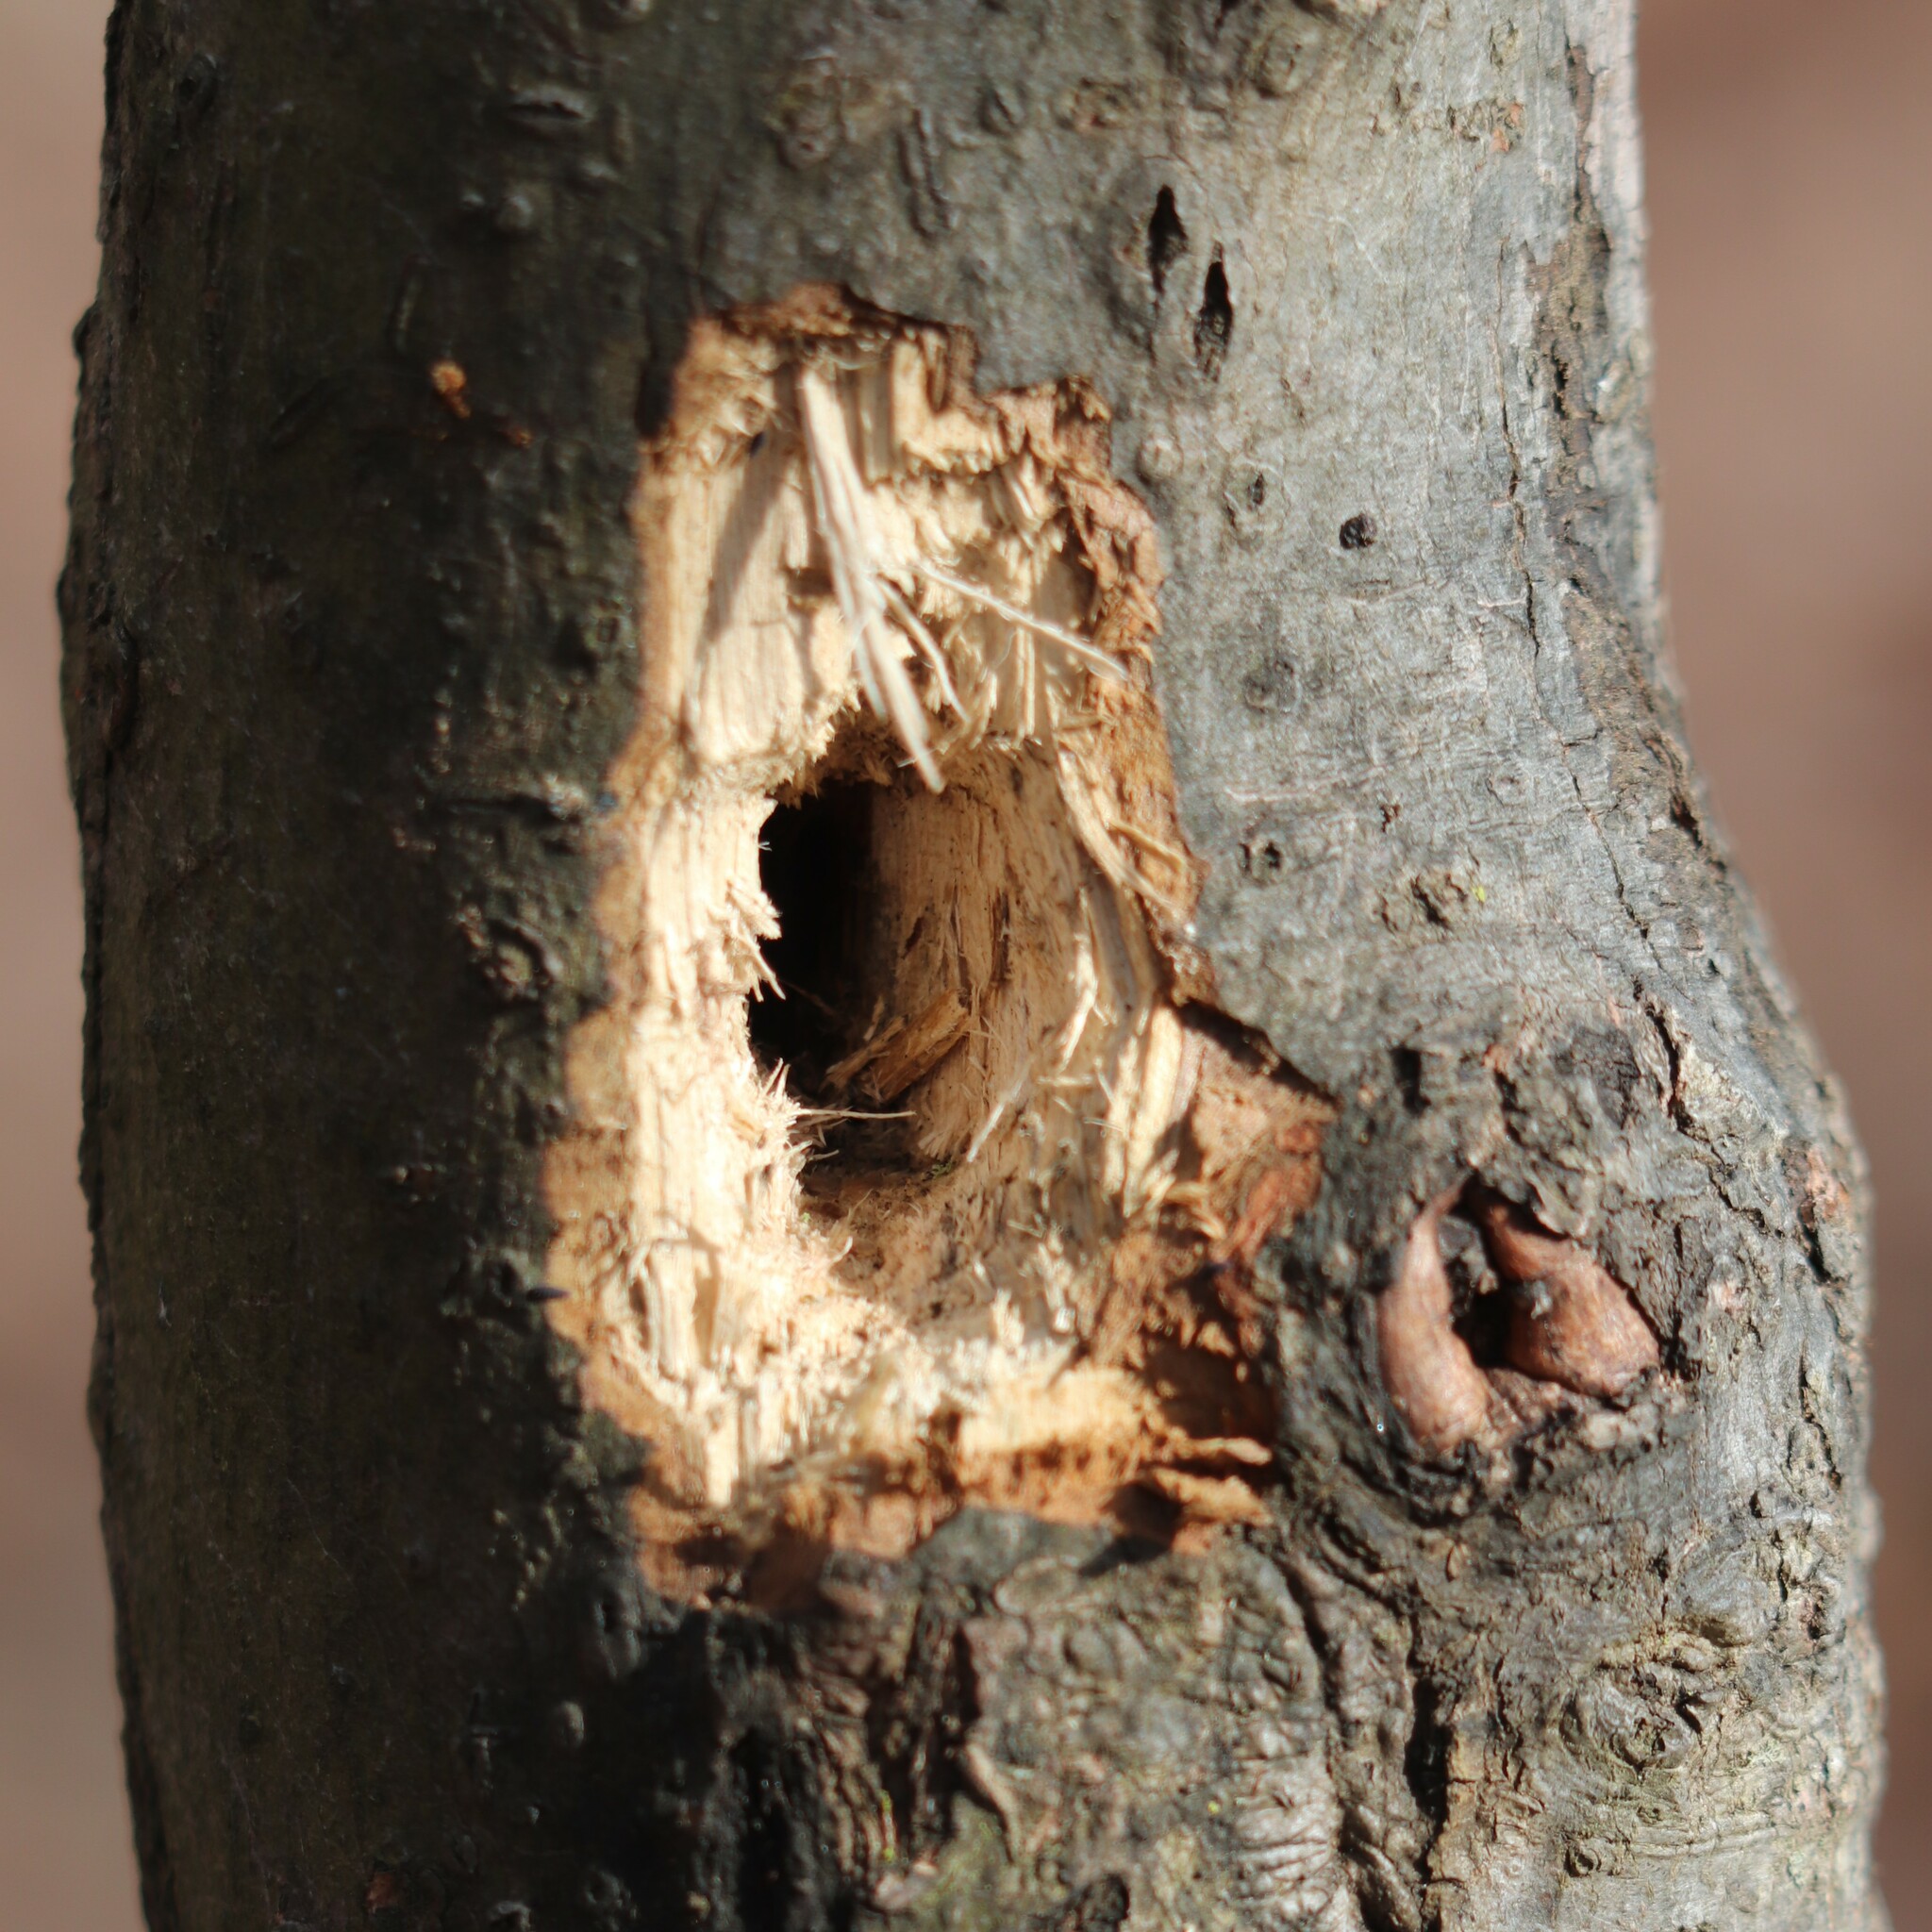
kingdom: Animalia
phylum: Chordata
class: Aves
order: Piciformes
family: Picidae
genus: Dryocopus
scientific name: Dryocopus pileatus
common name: Pileated woodpecker
